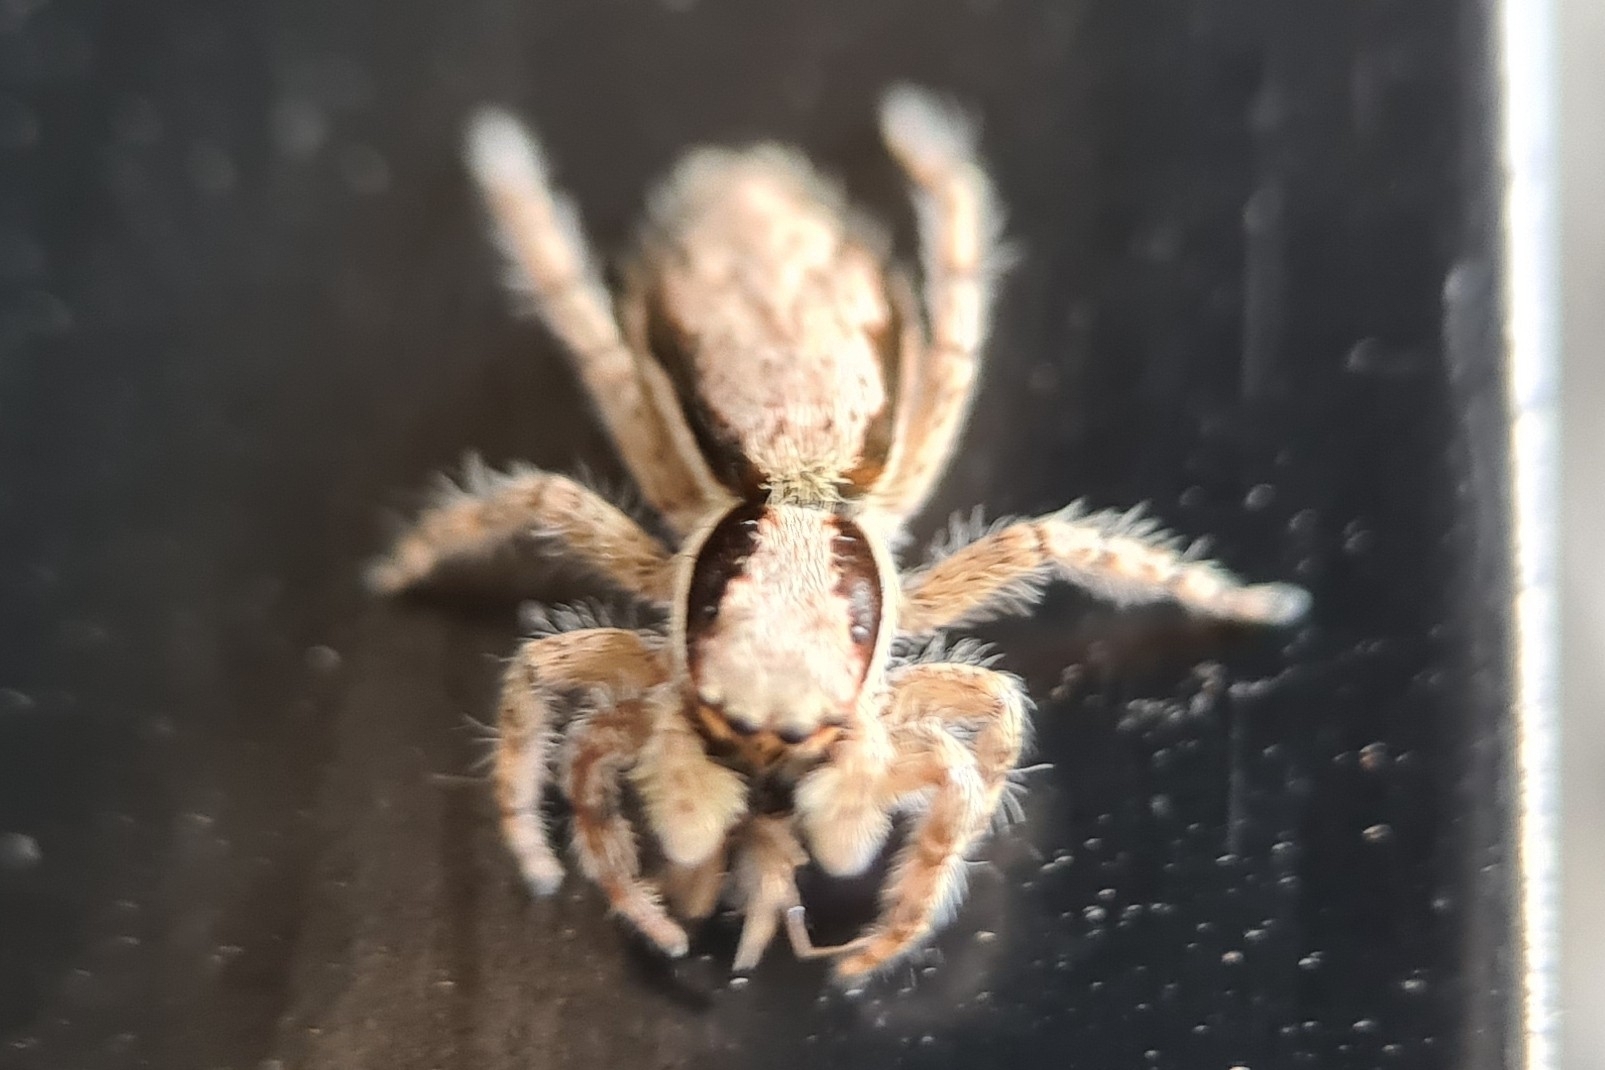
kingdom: Animalia
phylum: Arthropoda
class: Arachnida
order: Araneae
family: Salticidae
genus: Menemerus
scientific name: Menemerus bivittatus
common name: Gray wall jumper
